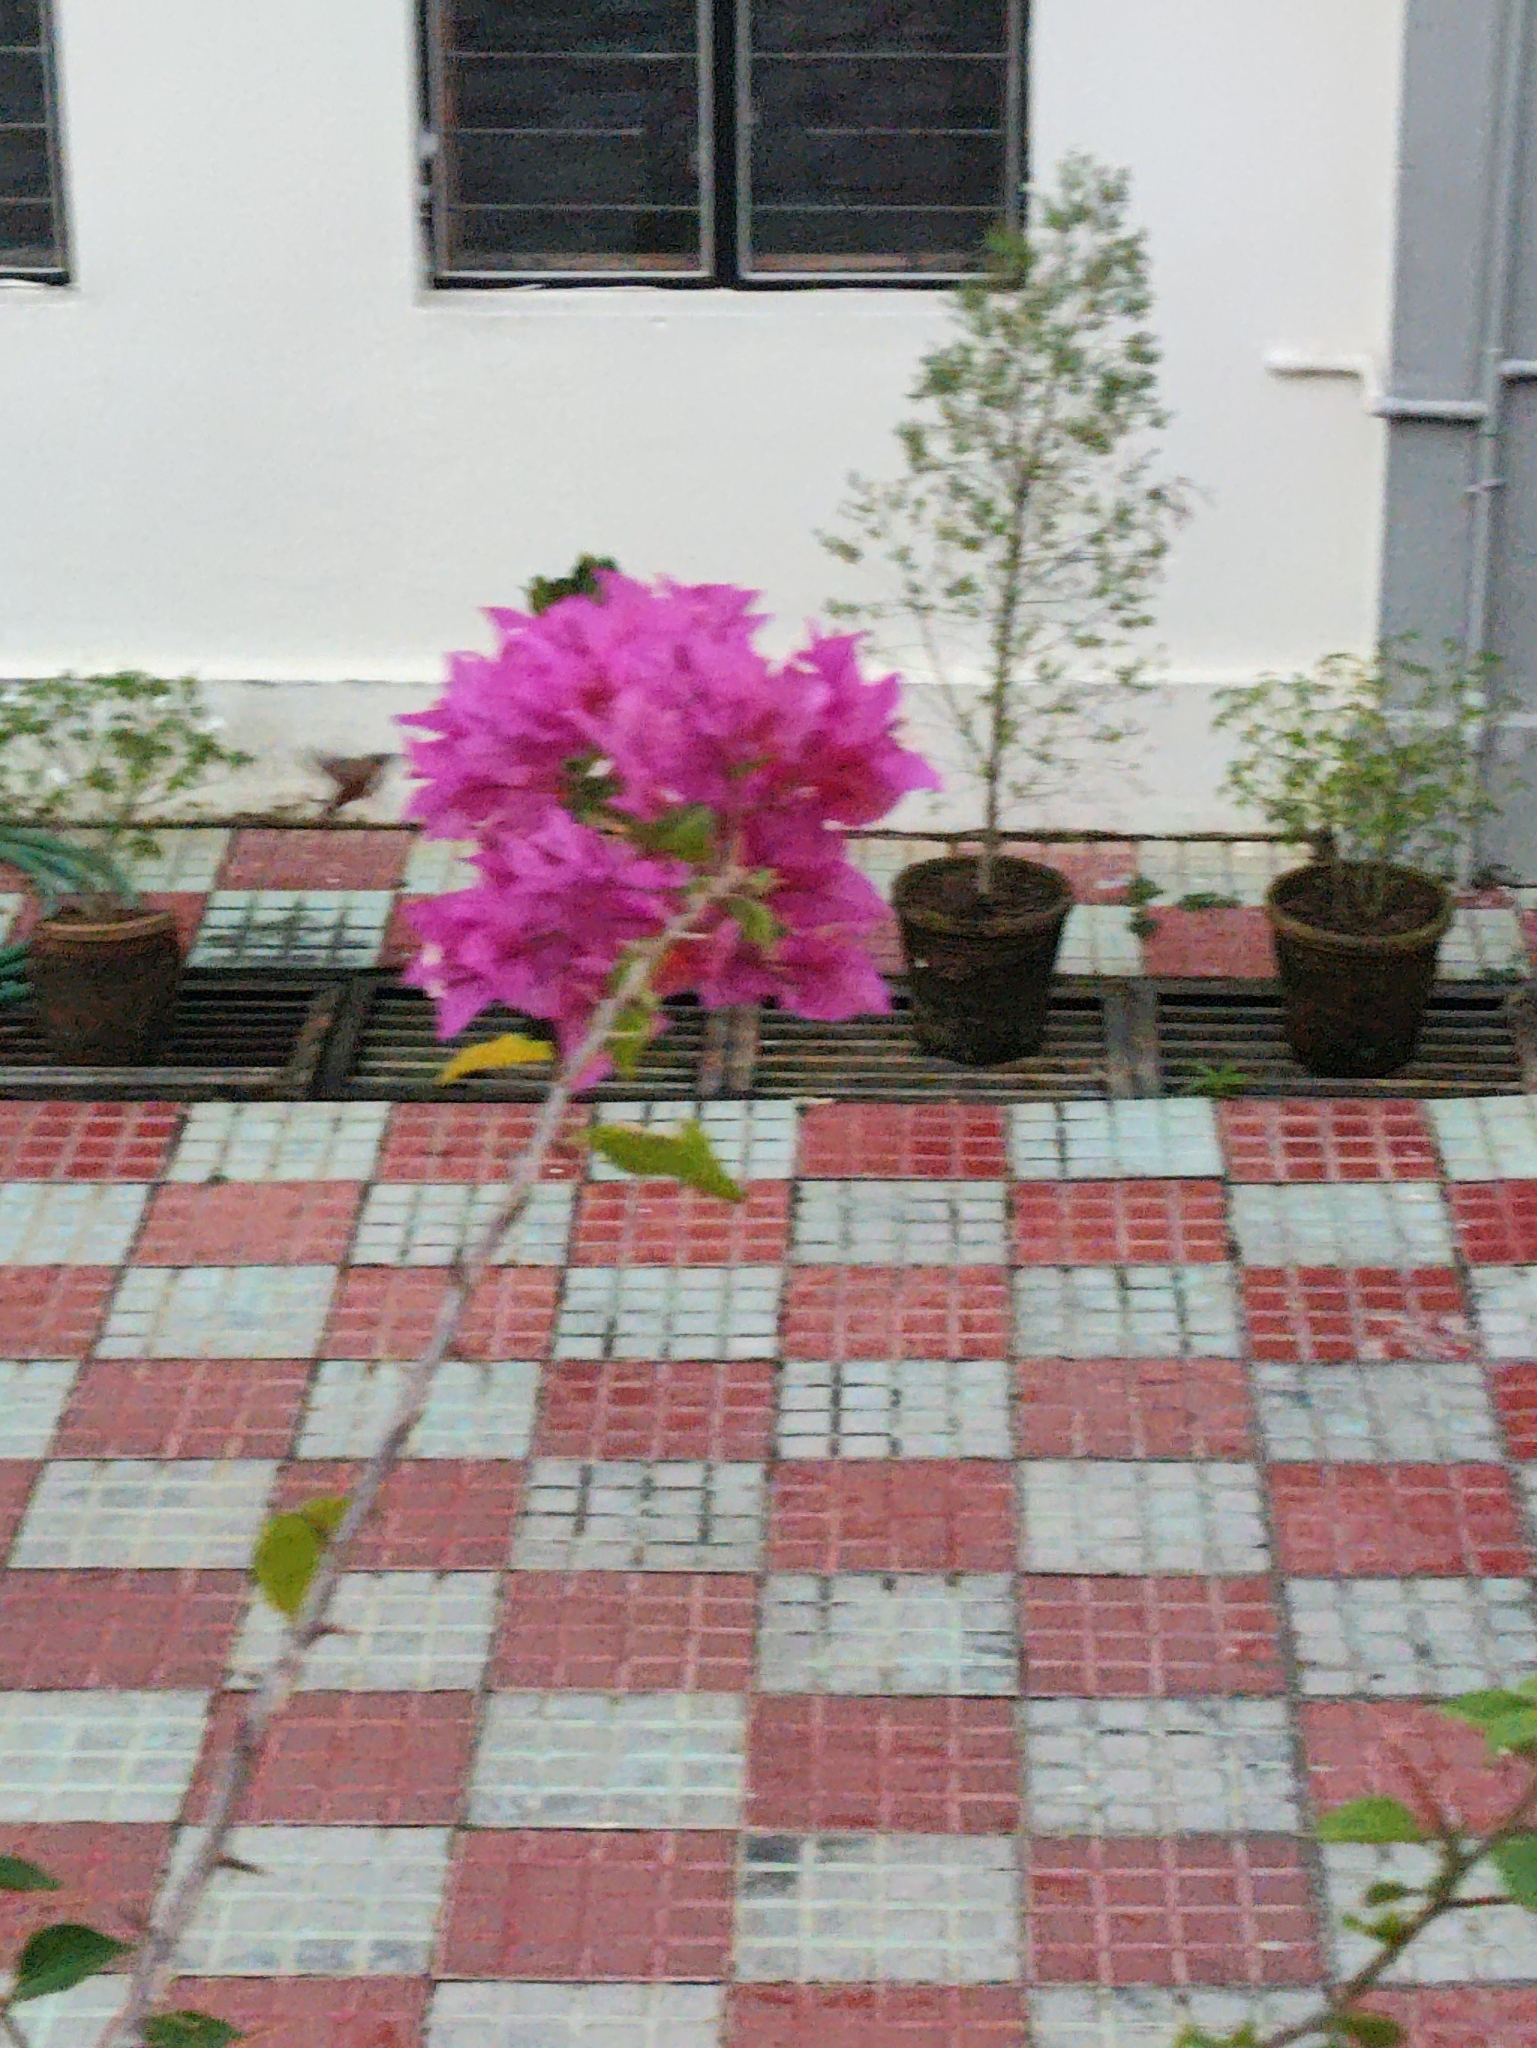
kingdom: Animalia
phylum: Arthropoda
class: Insecta
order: Lepidoptera
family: Sphingidae
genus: Macroglossum
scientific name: Macroglossum stellatarum
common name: Humming-bird hawk-moth
